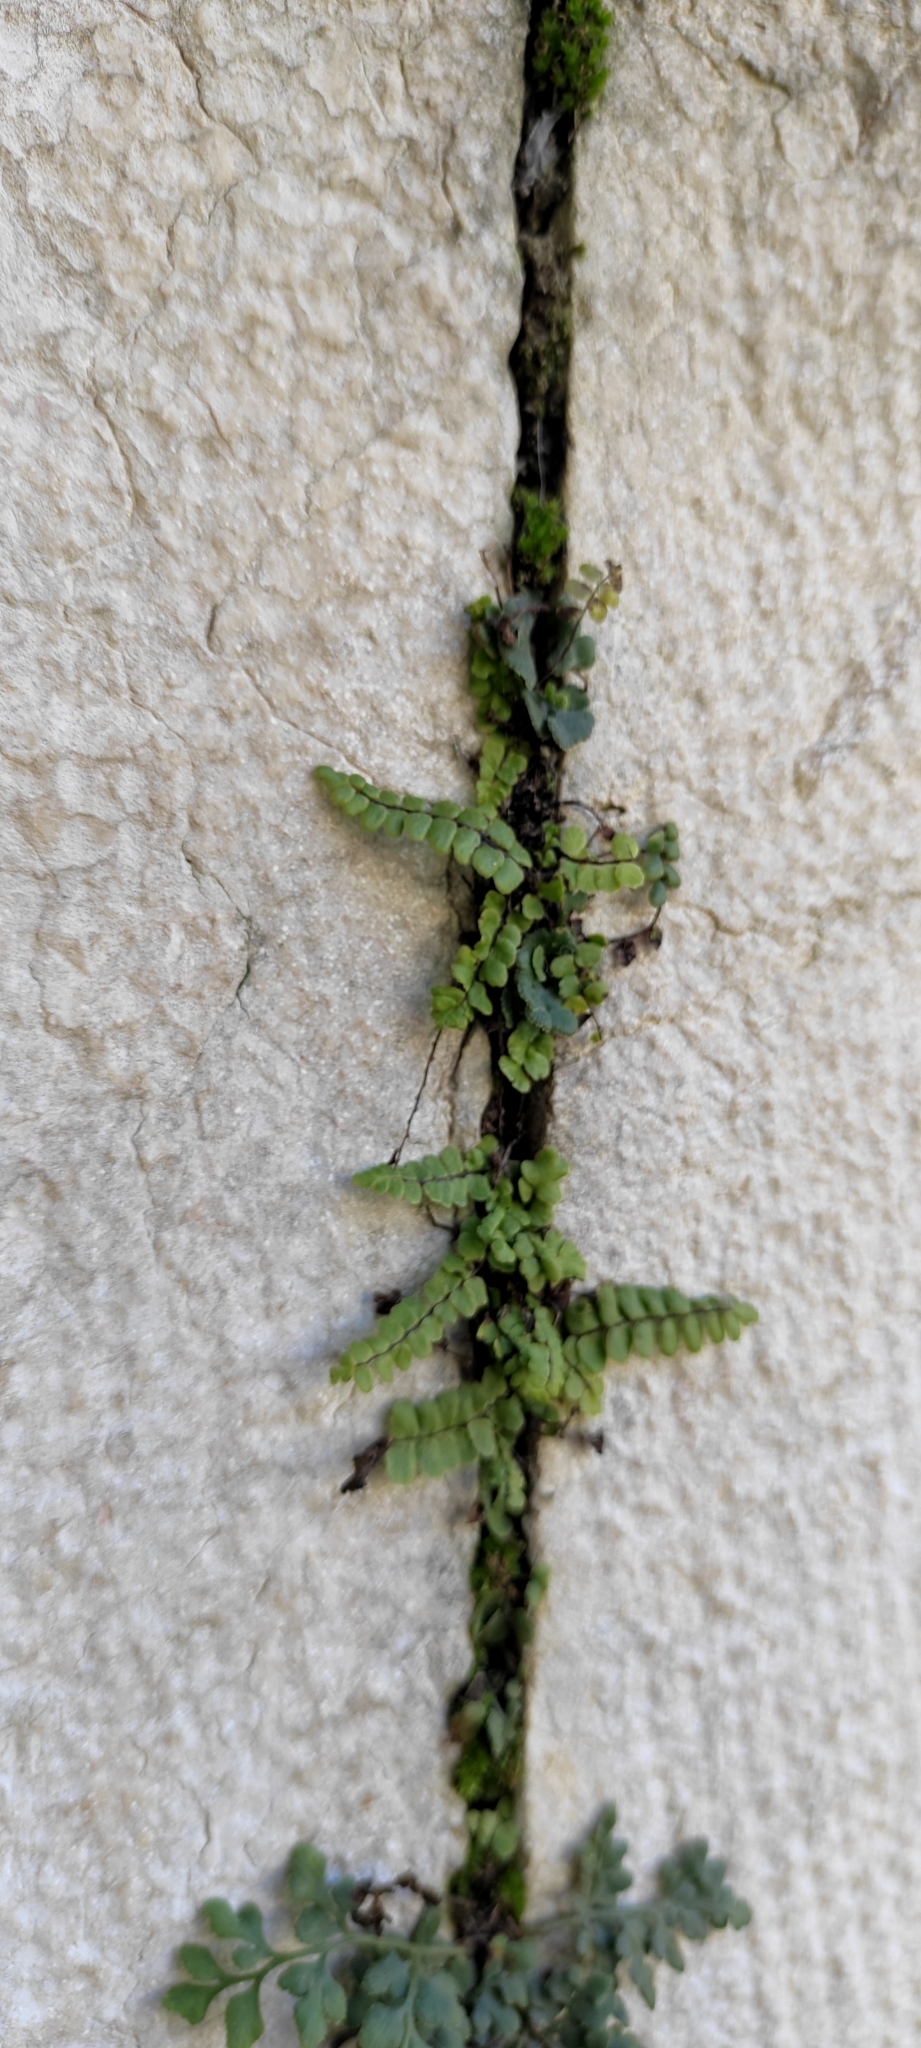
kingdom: Plantae
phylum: Tracheophyta
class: Polypodiopsida
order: Polypodiales
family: Aspleniaceae
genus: Asplenium
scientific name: Asplenium trichomanes
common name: Maidenhair spleenwort
